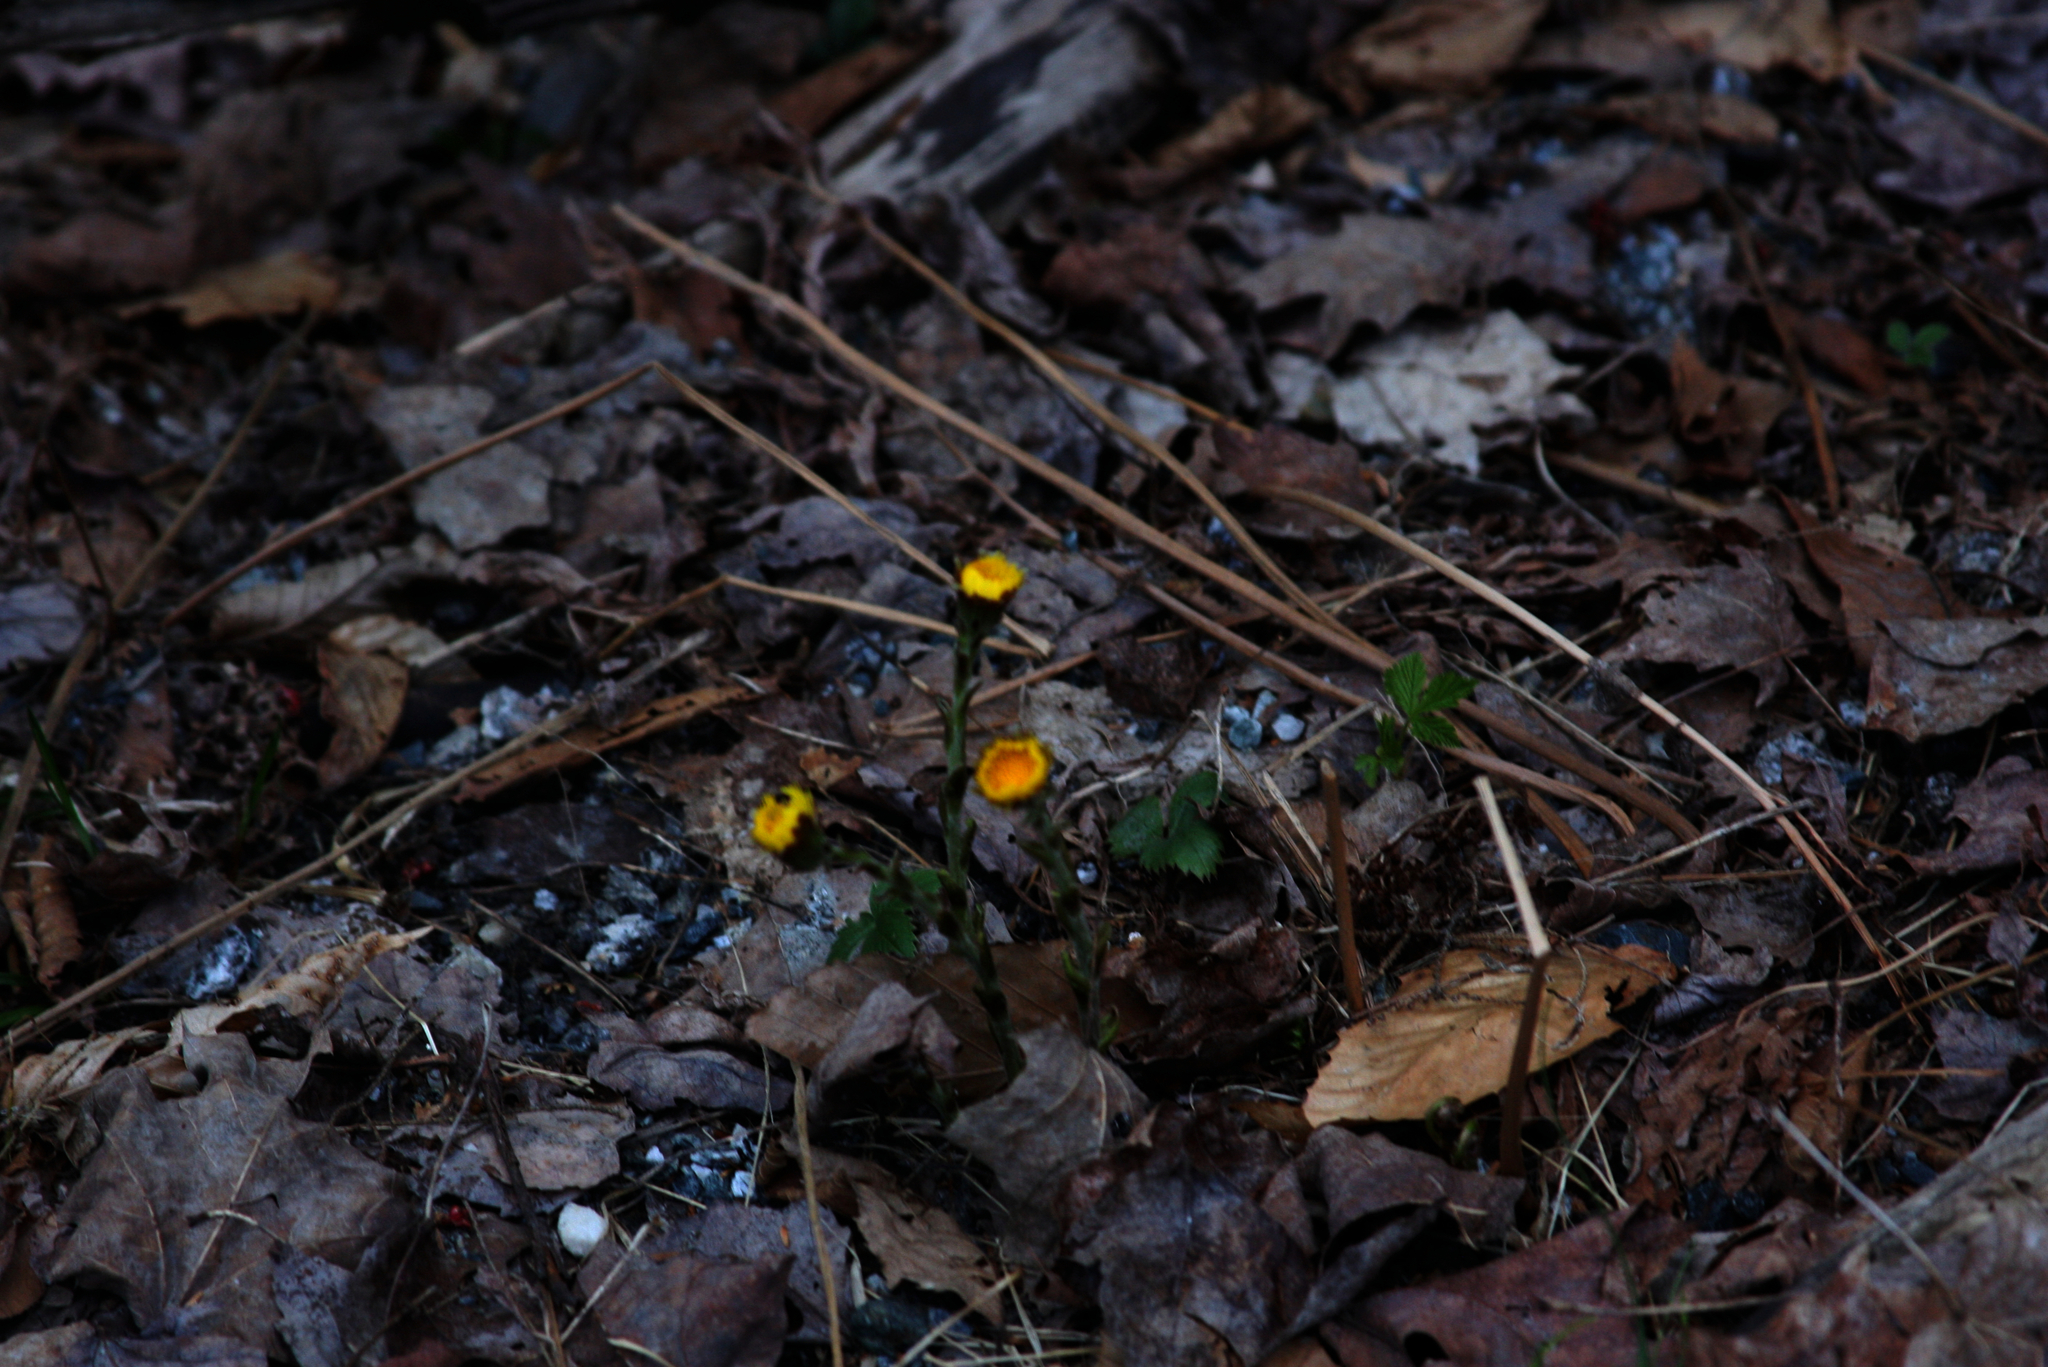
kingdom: Plantae
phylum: Tracheophyta
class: Magnoliopsida
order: Asterales
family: Asteraceae
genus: Tussilago
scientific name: Tussilago farfara
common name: Coltsfoot
